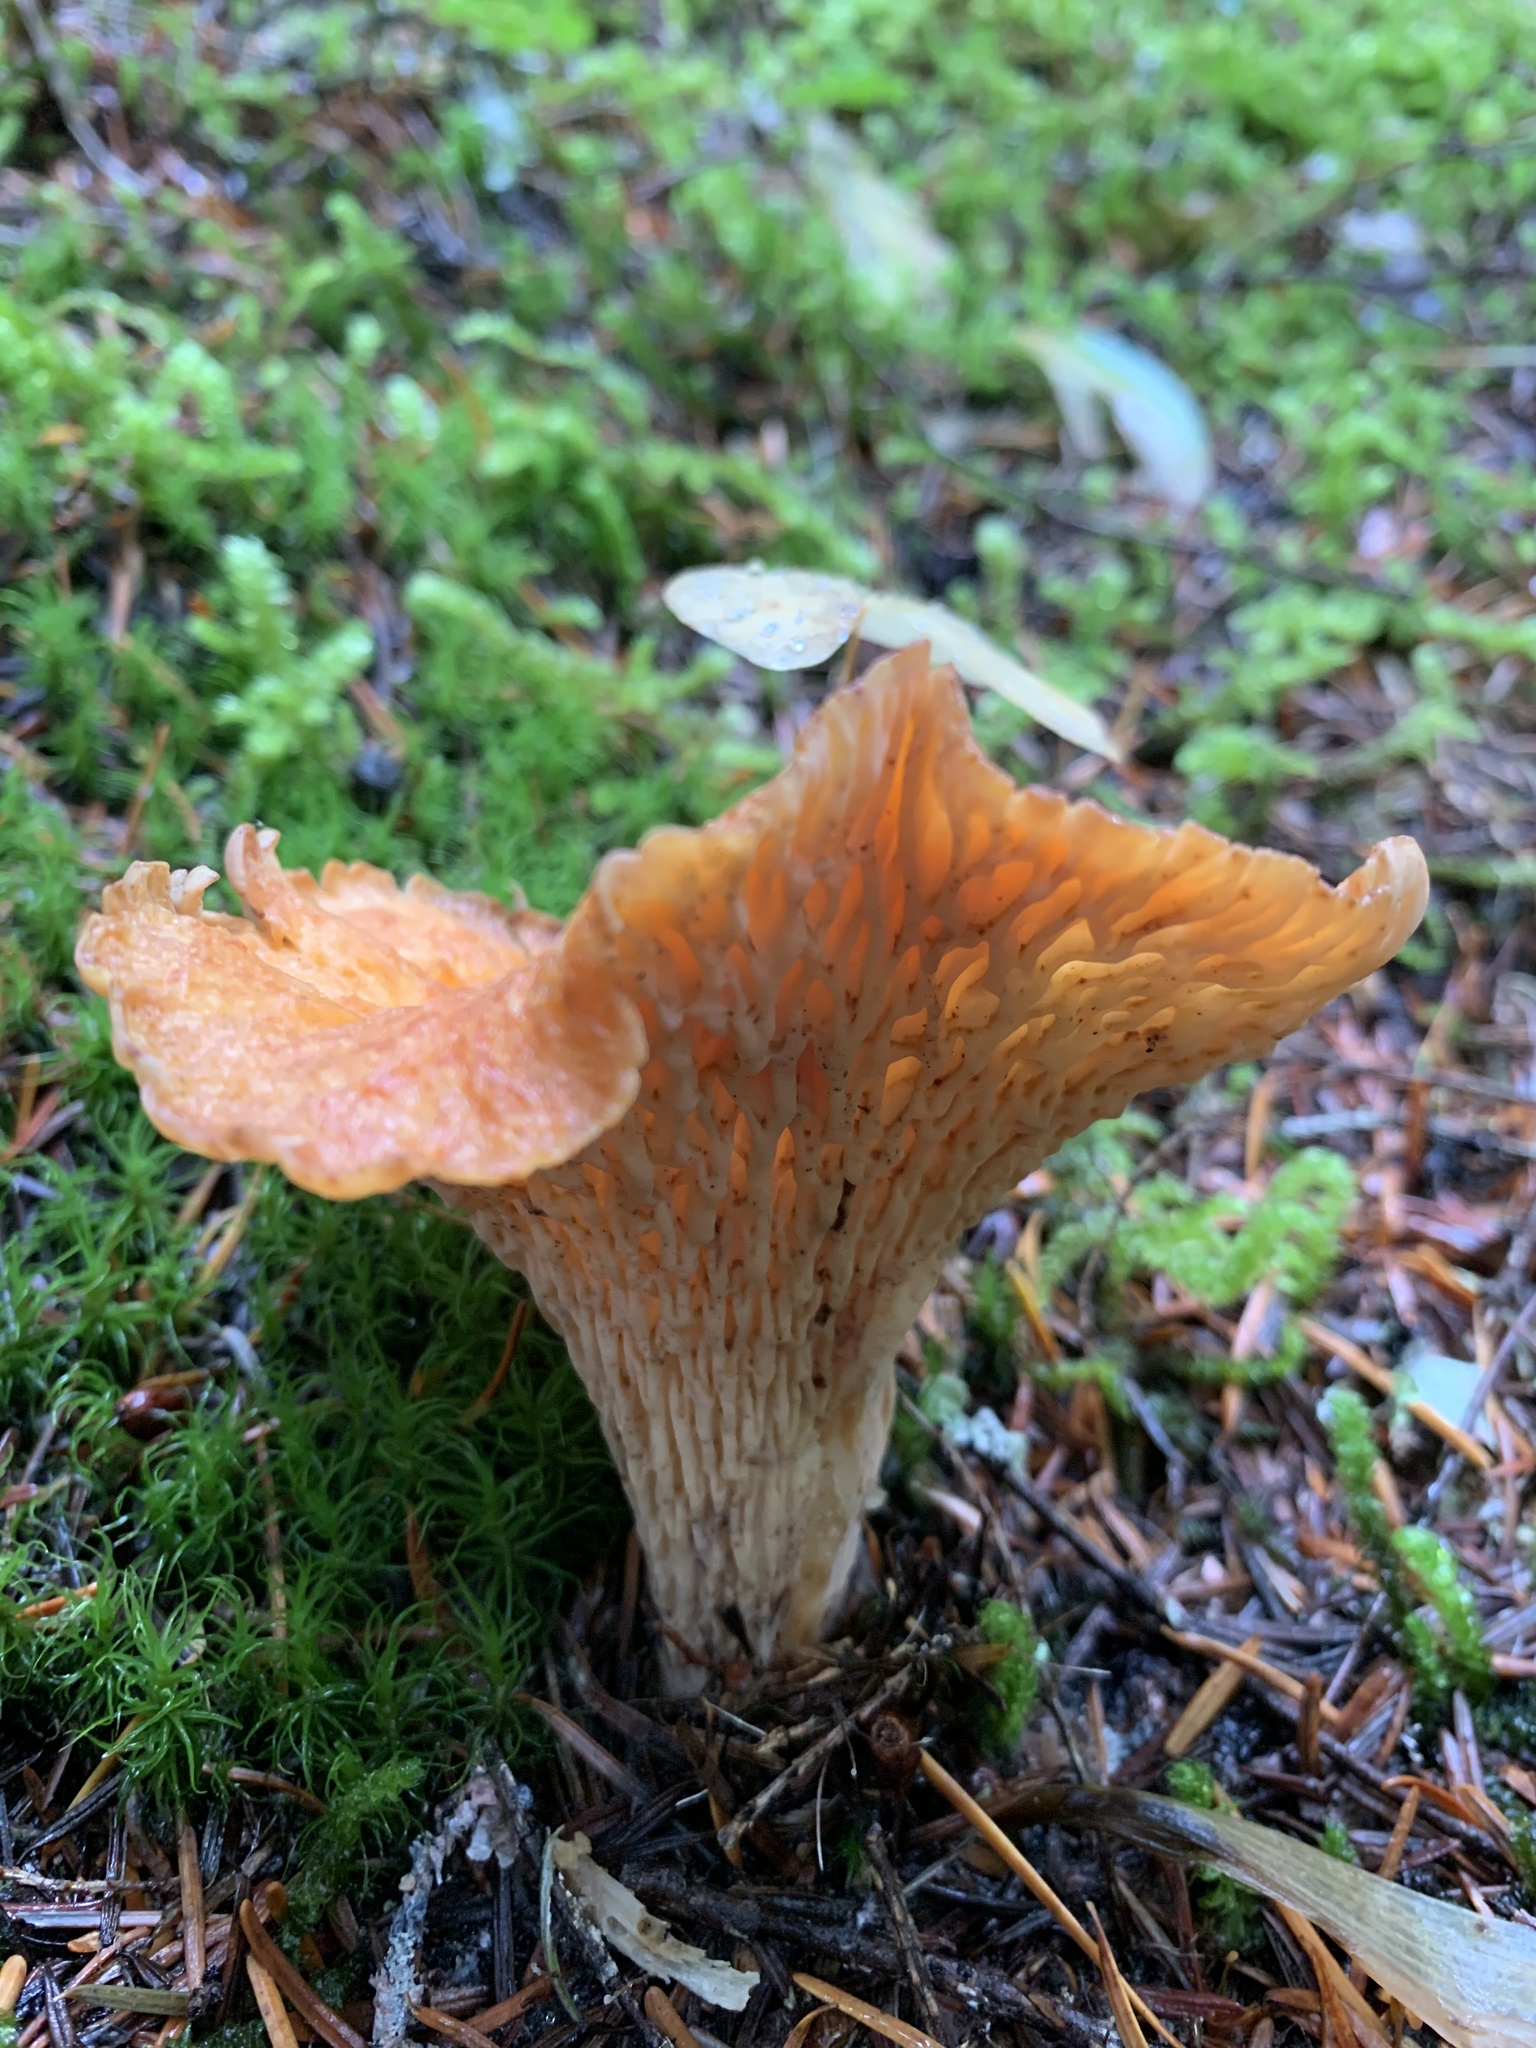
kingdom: Fungi
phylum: Basidiomycota
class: Agaricomycetes
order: Gomphales
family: Gomphaceae
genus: Turbinellus
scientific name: Turbinellus floccosus
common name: Scaly chanterelle
